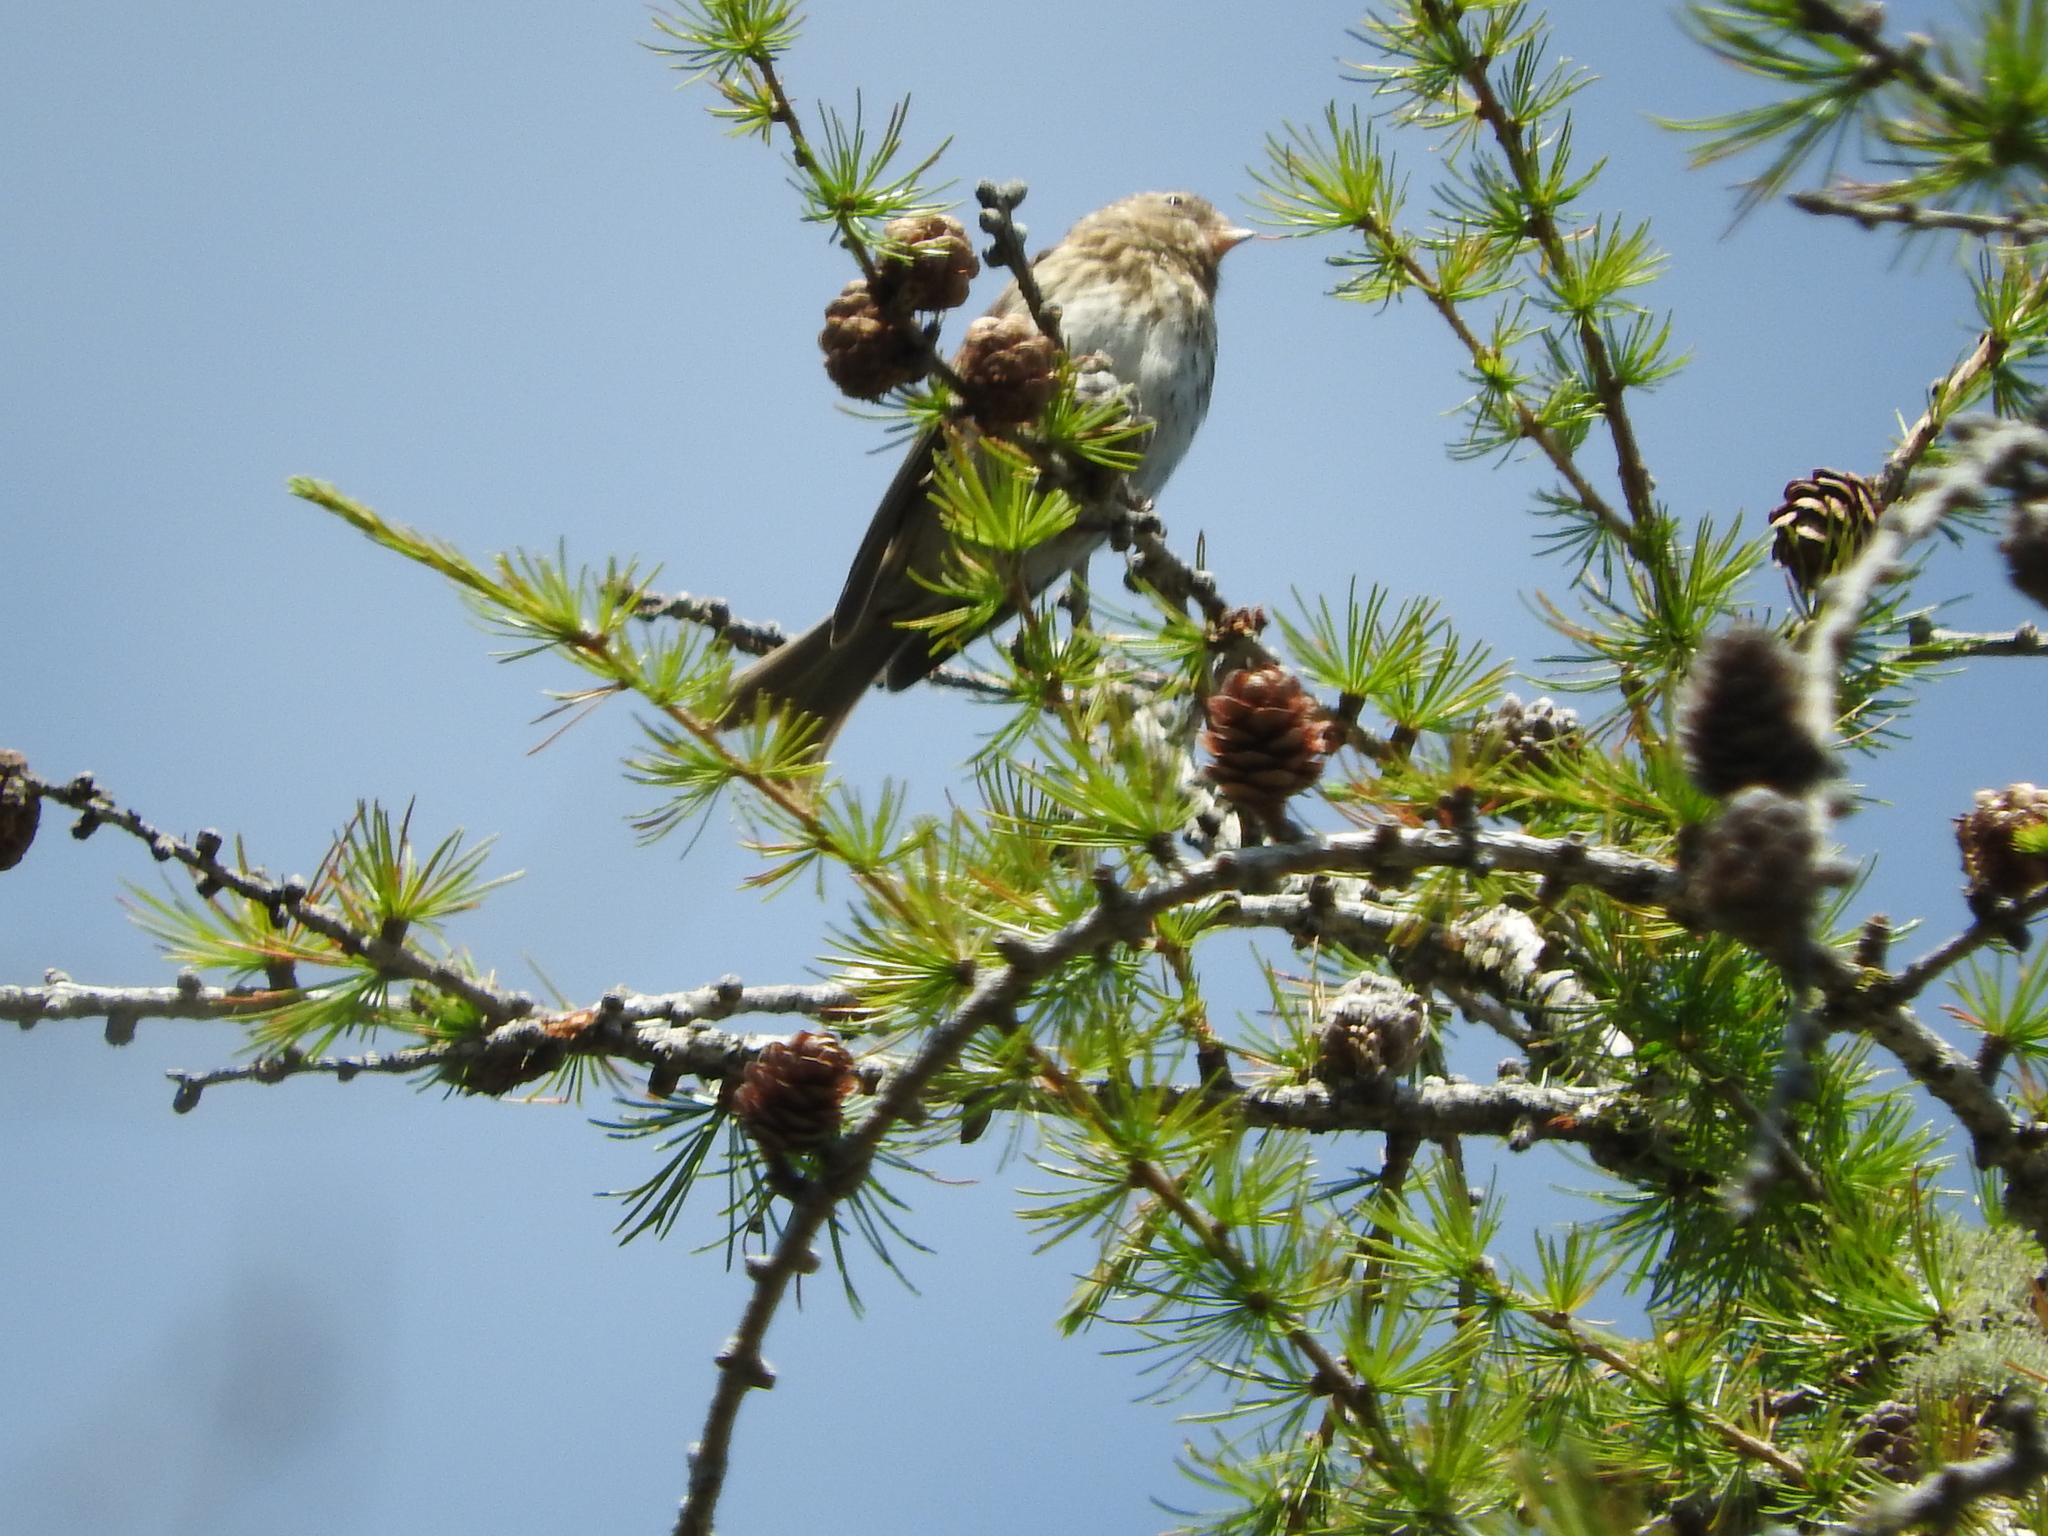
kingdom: Animalia
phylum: Chordata
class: Aves
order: Passeriformes
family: Fringillidae
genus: Spinus
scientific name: Spinus spinus
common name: Eurasian siskin
